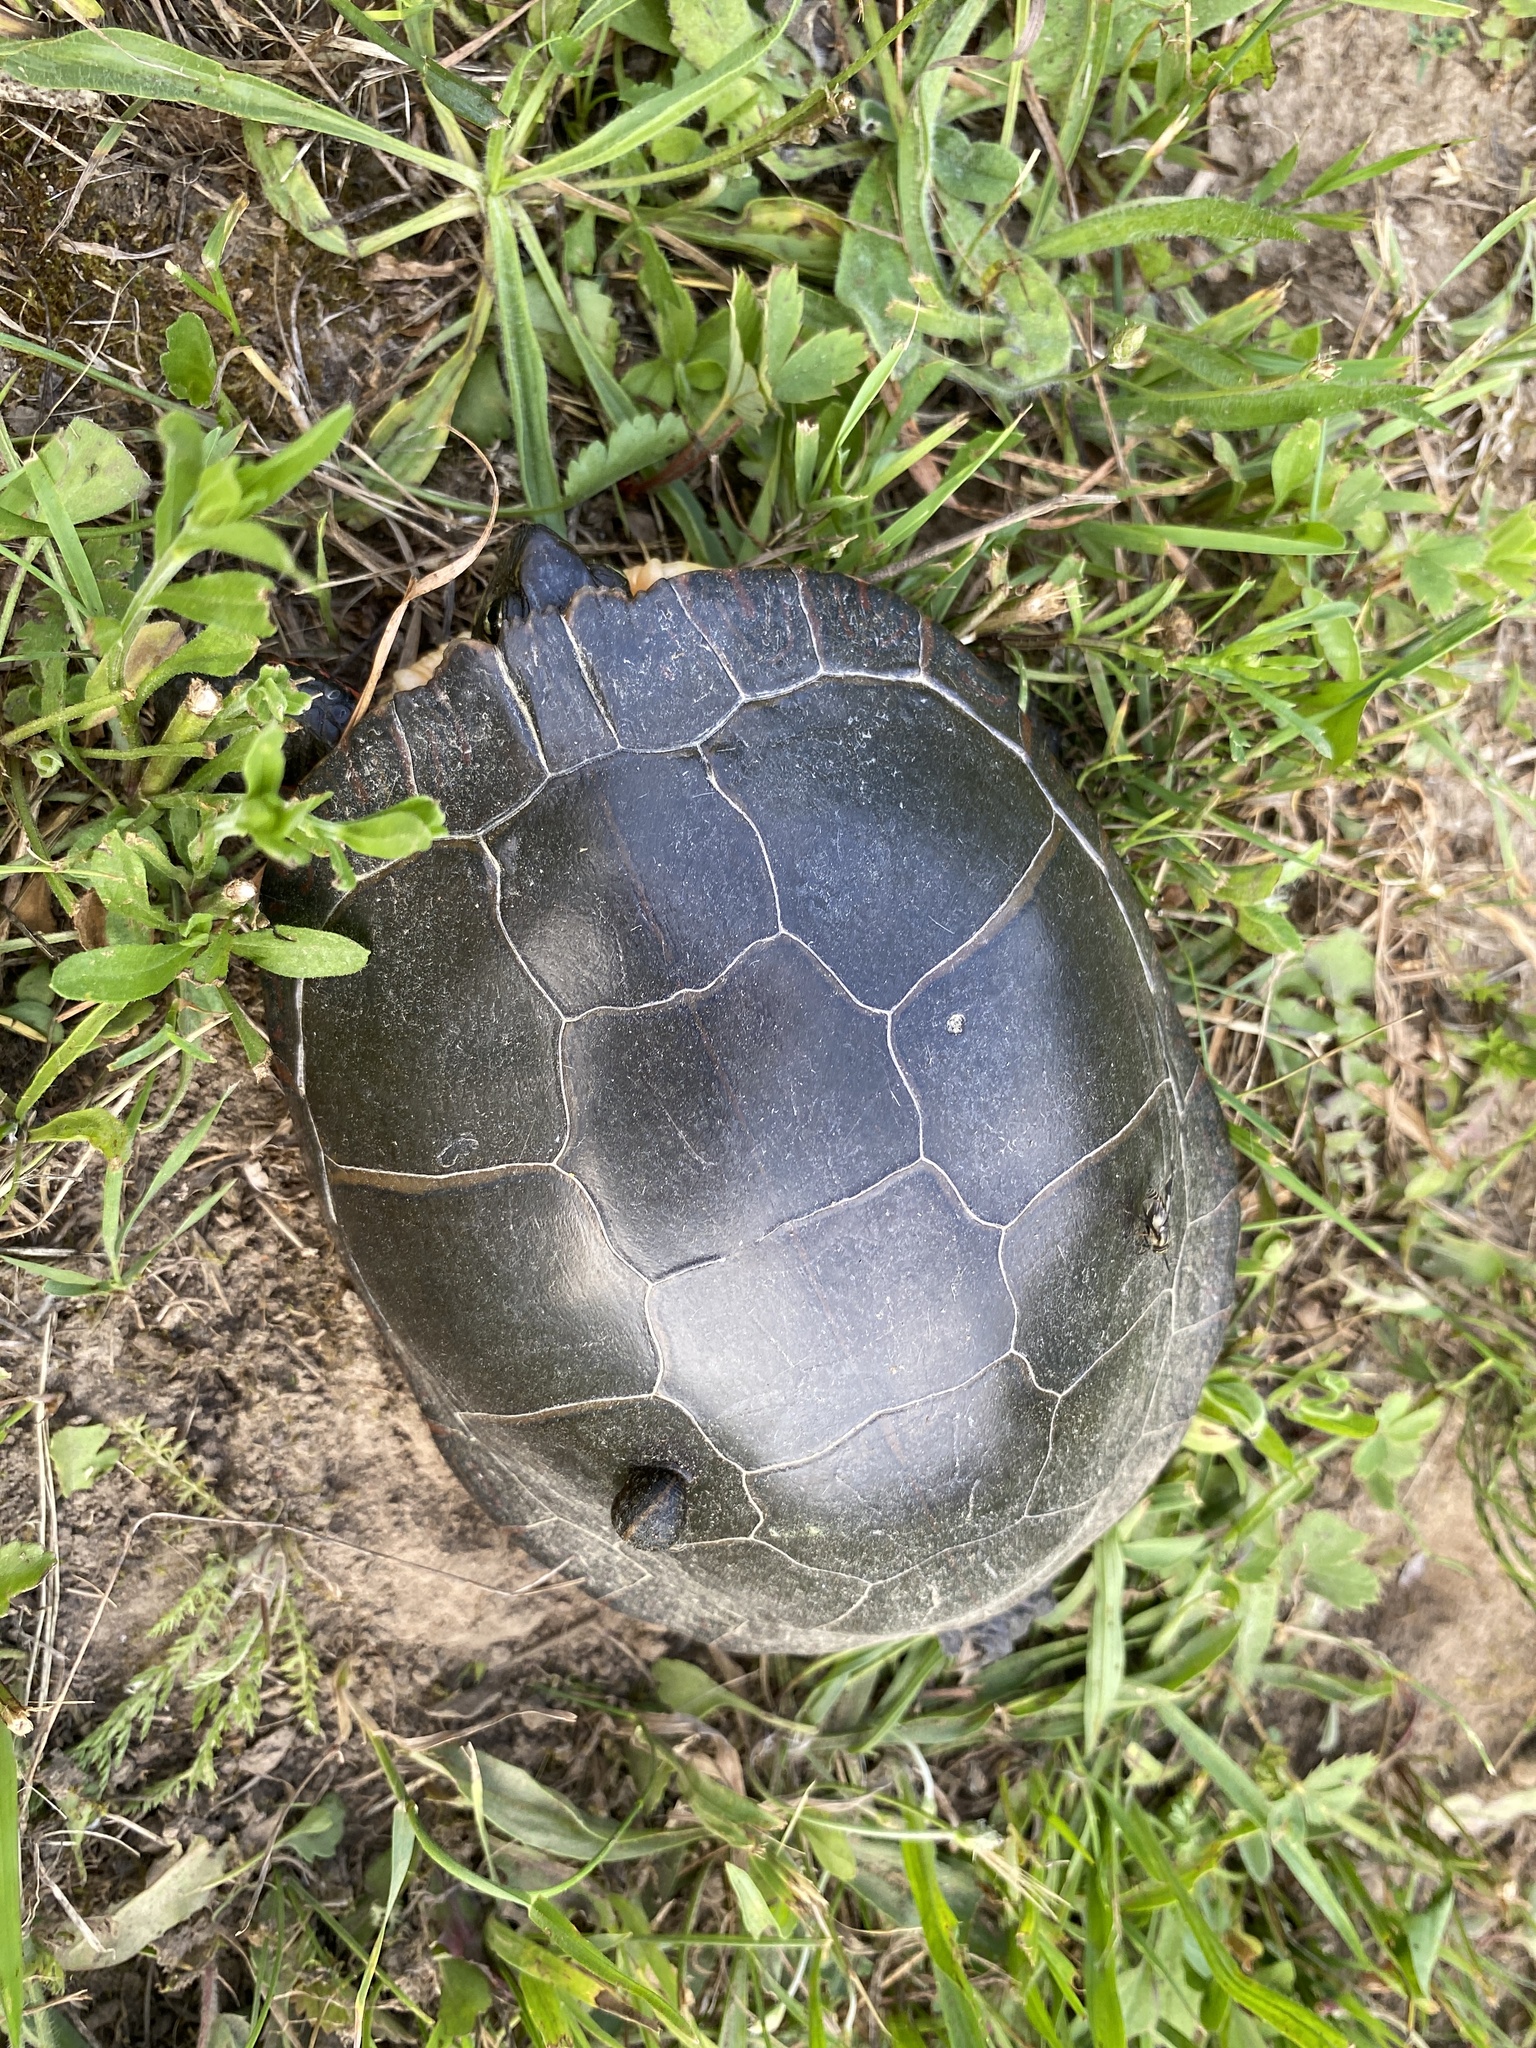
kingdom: Animalia
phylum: Chordata
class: Testudines
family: Emydidae
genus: Chrysemys
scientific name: Chrysemys picta
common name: Painted turtle
